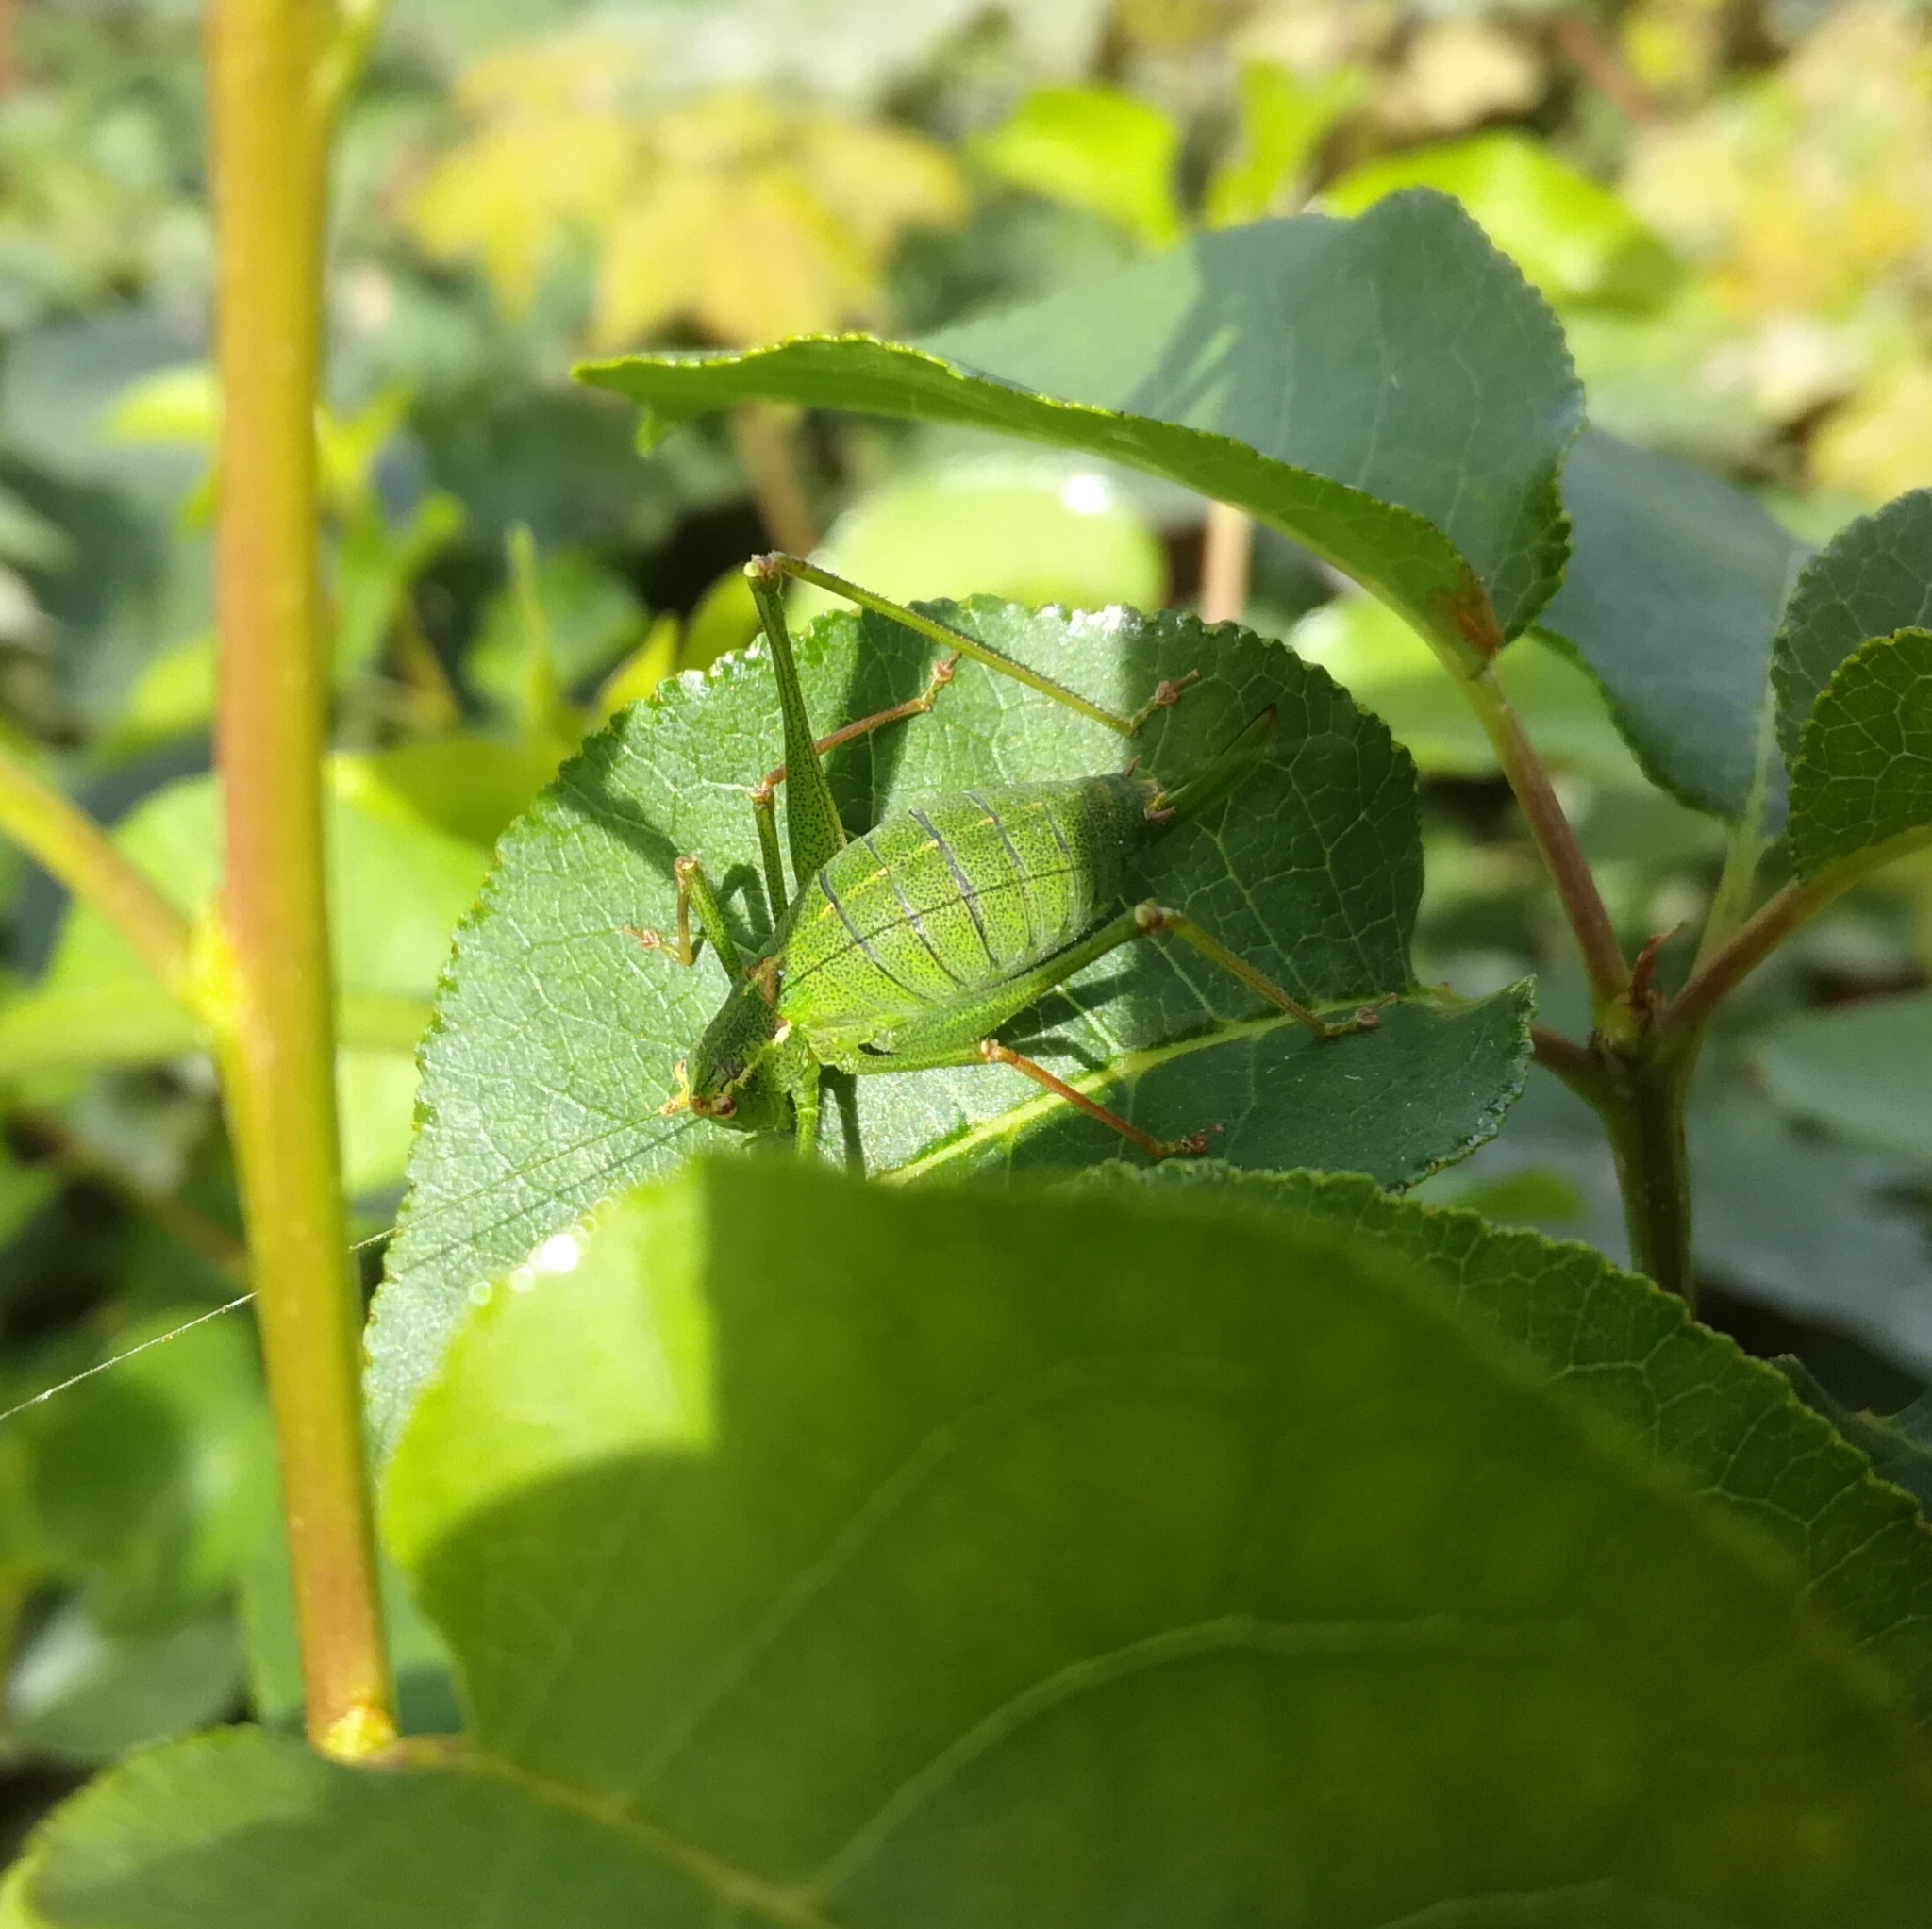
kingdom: Animalia
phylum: Arthropoda
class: Insecta
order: Orthoptera
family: Tettigoniidae
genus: Leptophyes
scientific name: Leptophyes punctatissima
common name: Speckled bush-cricket
